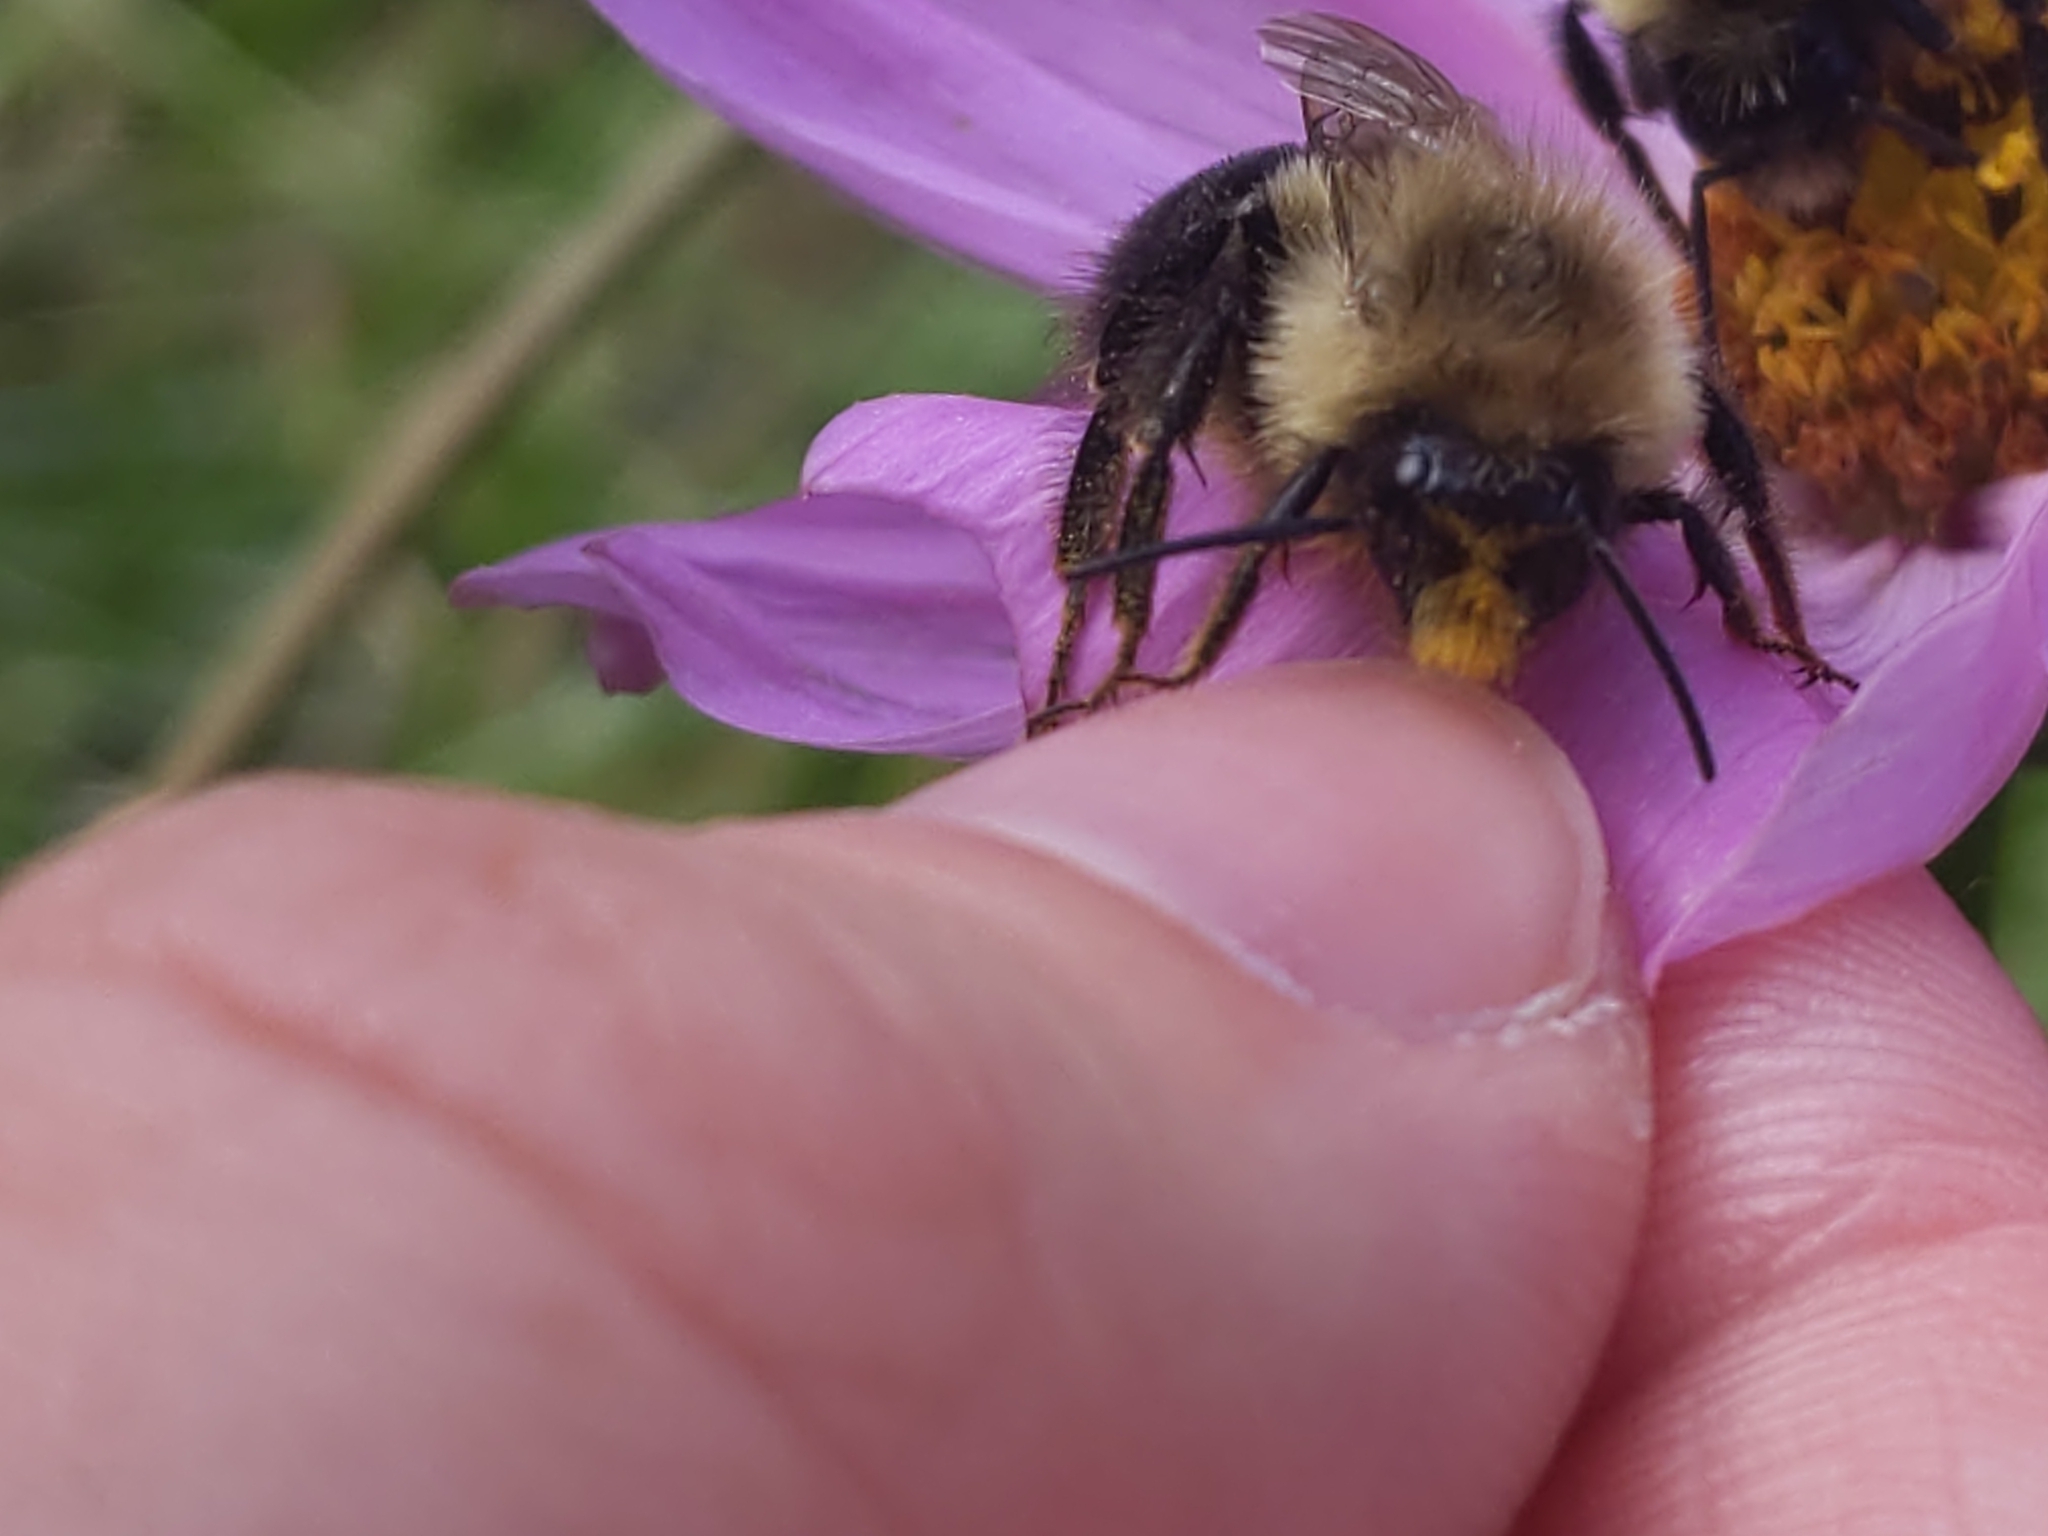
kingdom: Animalia
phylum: Arthropoda
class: Insecta
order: Hymenoptera
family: Apidae
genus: Bombus
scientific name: Bombus impatiens
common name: Common eastern bumble bee
